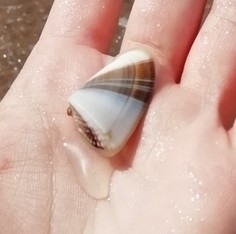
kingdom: Animalia
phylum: Mollusca
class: Bivalvia
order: Cardiida
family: Donacidae
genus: Donax
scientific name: Donax hanleyanus
